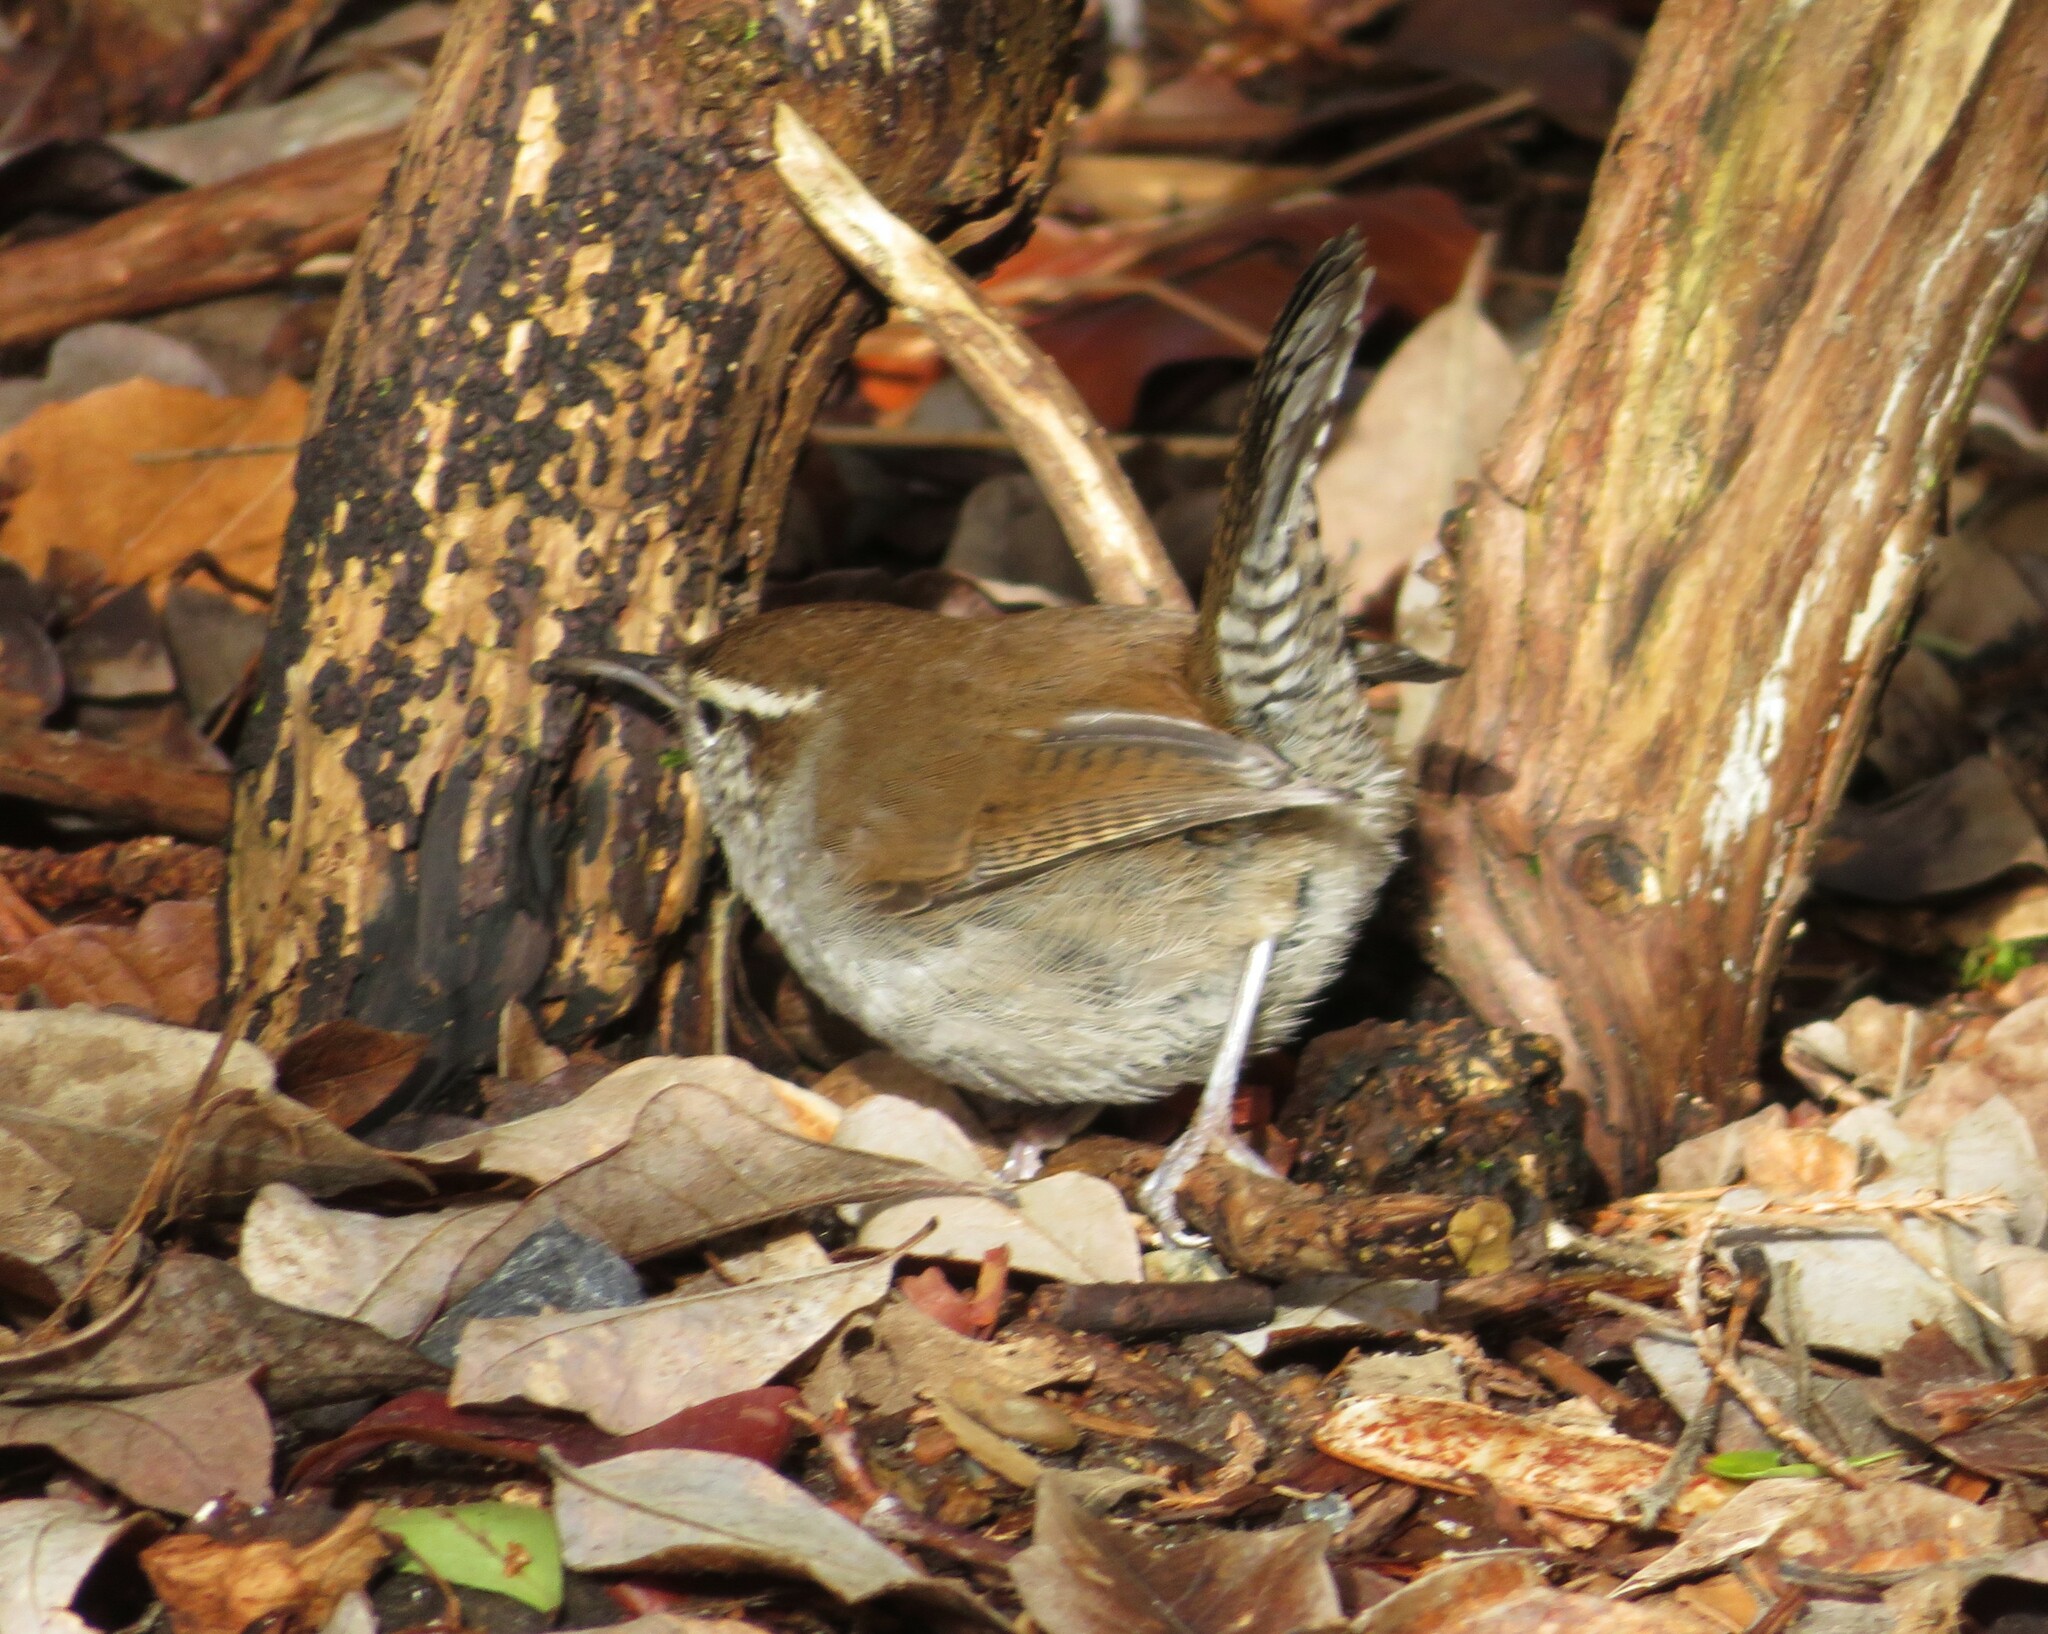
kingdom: Animalia
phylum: Chordata
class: Aves
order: Passeriformes
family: Troglodytidae
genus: Thryomanes
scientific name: Thryomanes bewickii
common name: Bewick's wren
